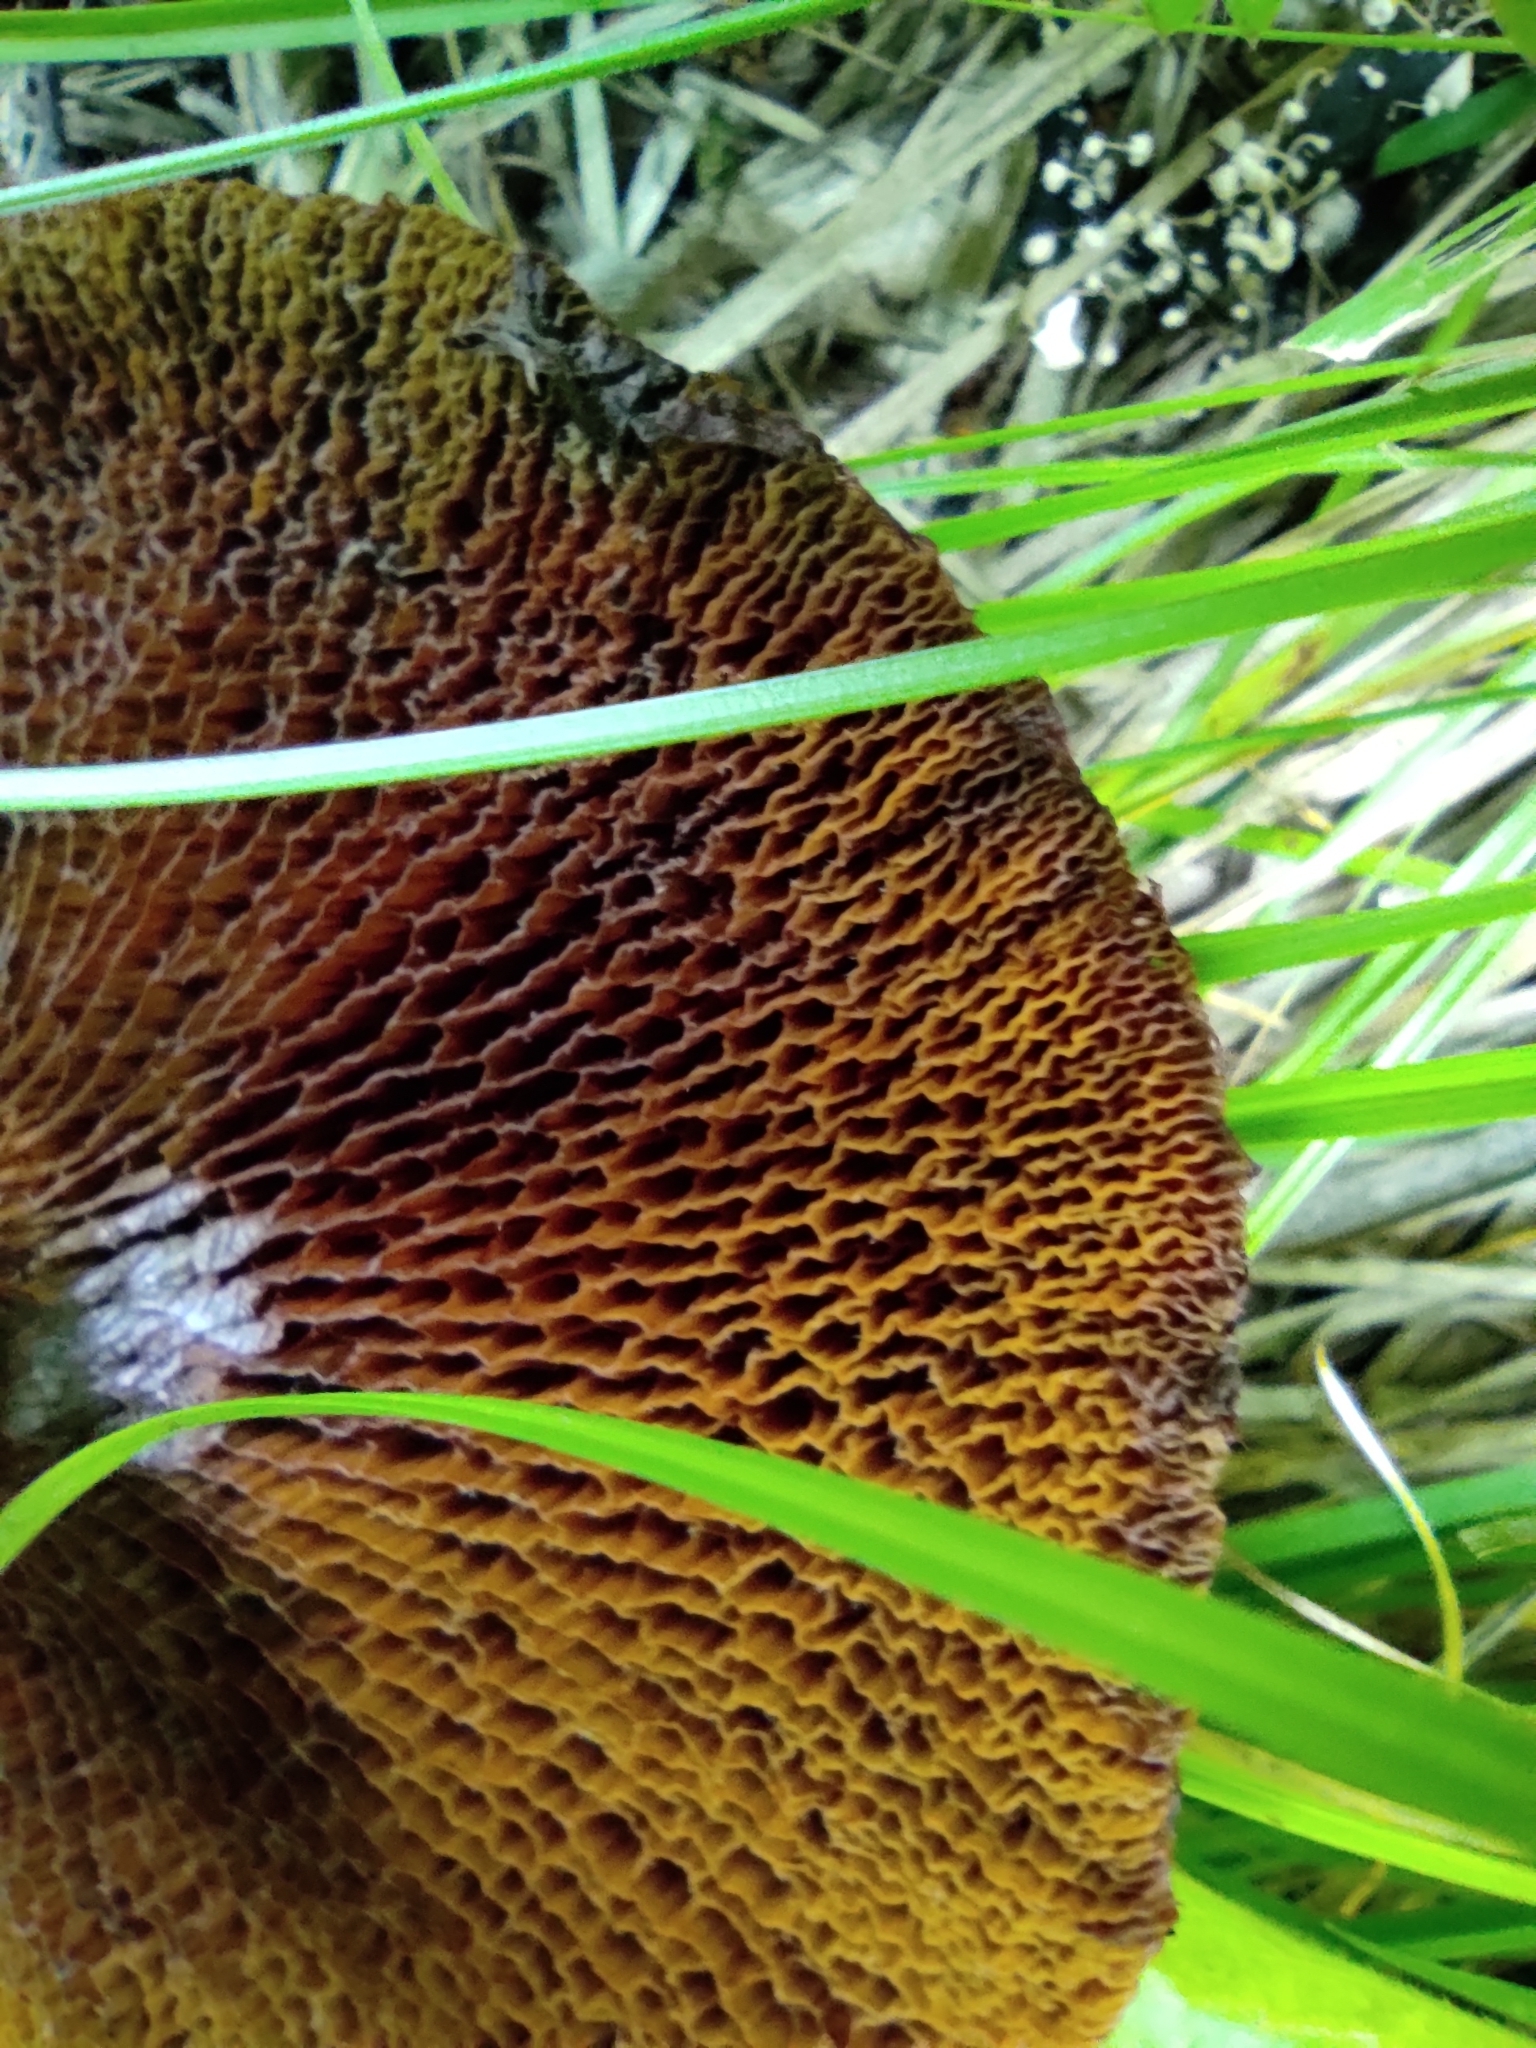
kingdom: Fungi
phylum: Basidiomycota
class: Agaricomycetes
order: Boletales
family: Suillaceae
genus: Boletinus
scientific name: Boletinus asiaticus
